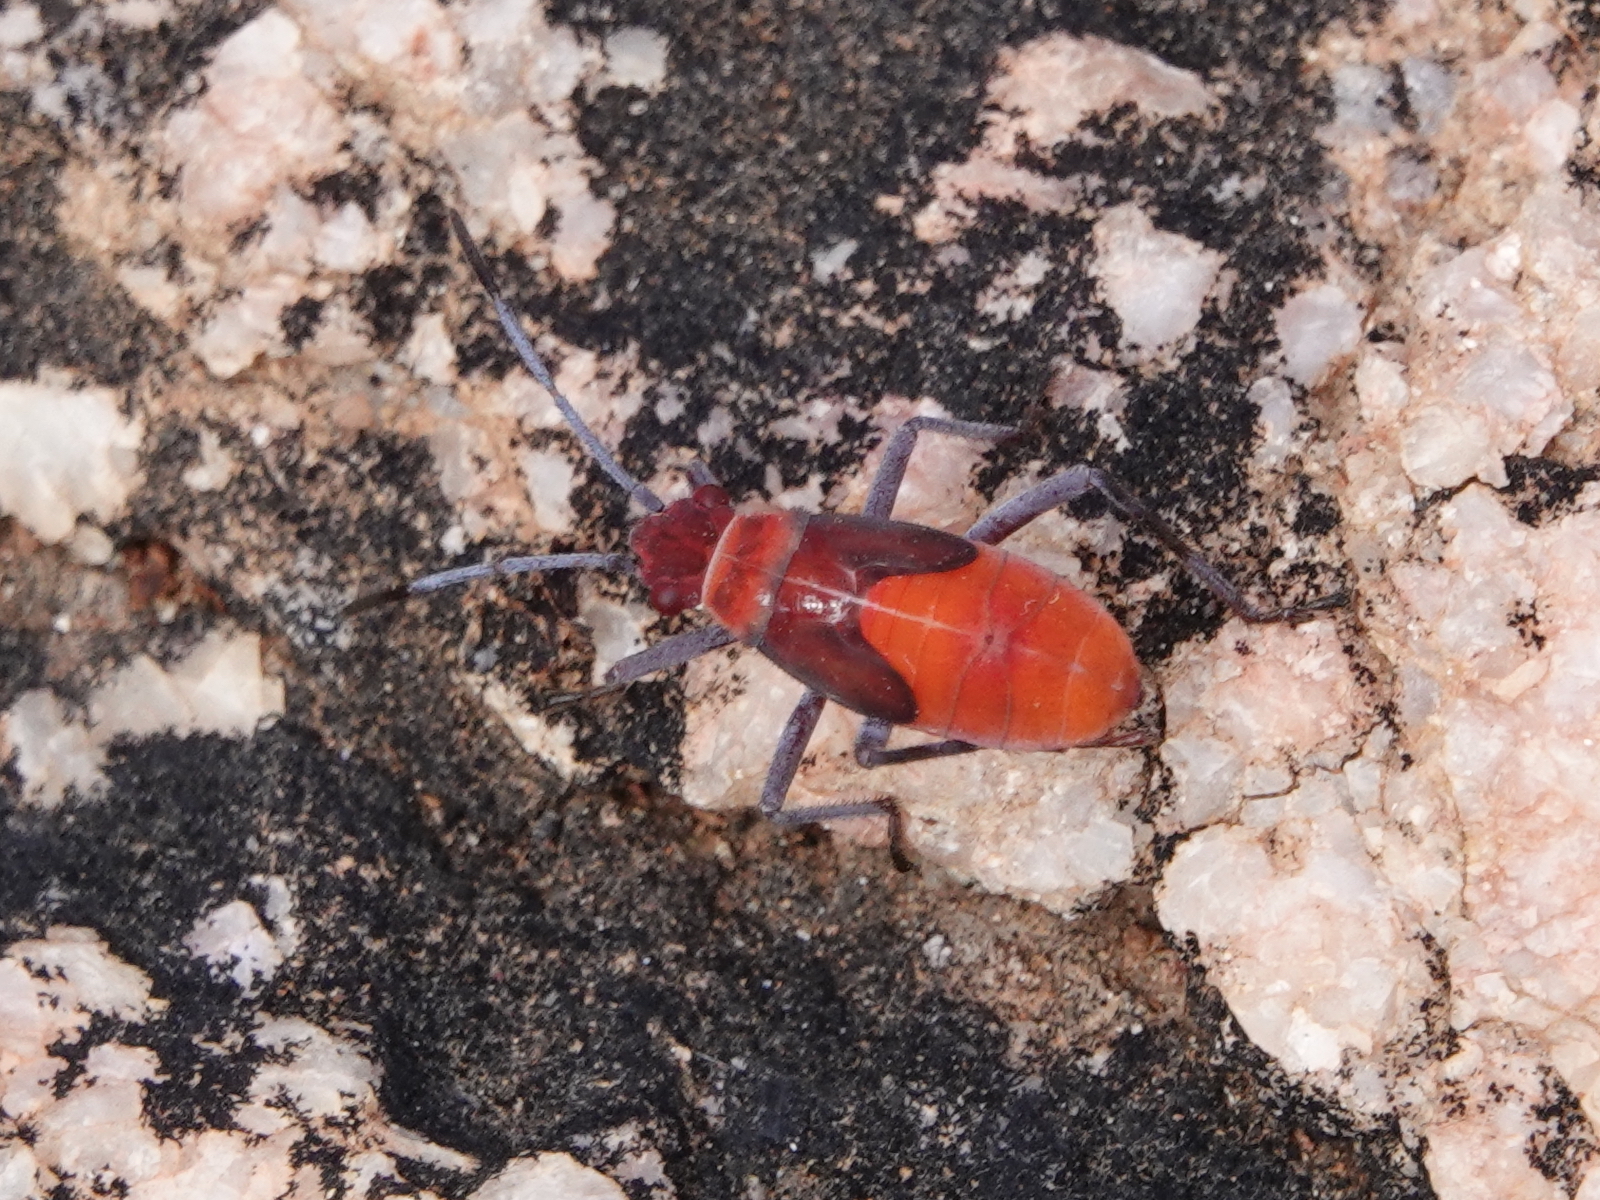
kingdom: Animalia
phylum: Arthropoda
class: Insecta
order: Hemiptera
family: Rhopalidae
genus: Leptocoris
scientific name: Leptocoris mitellatus
